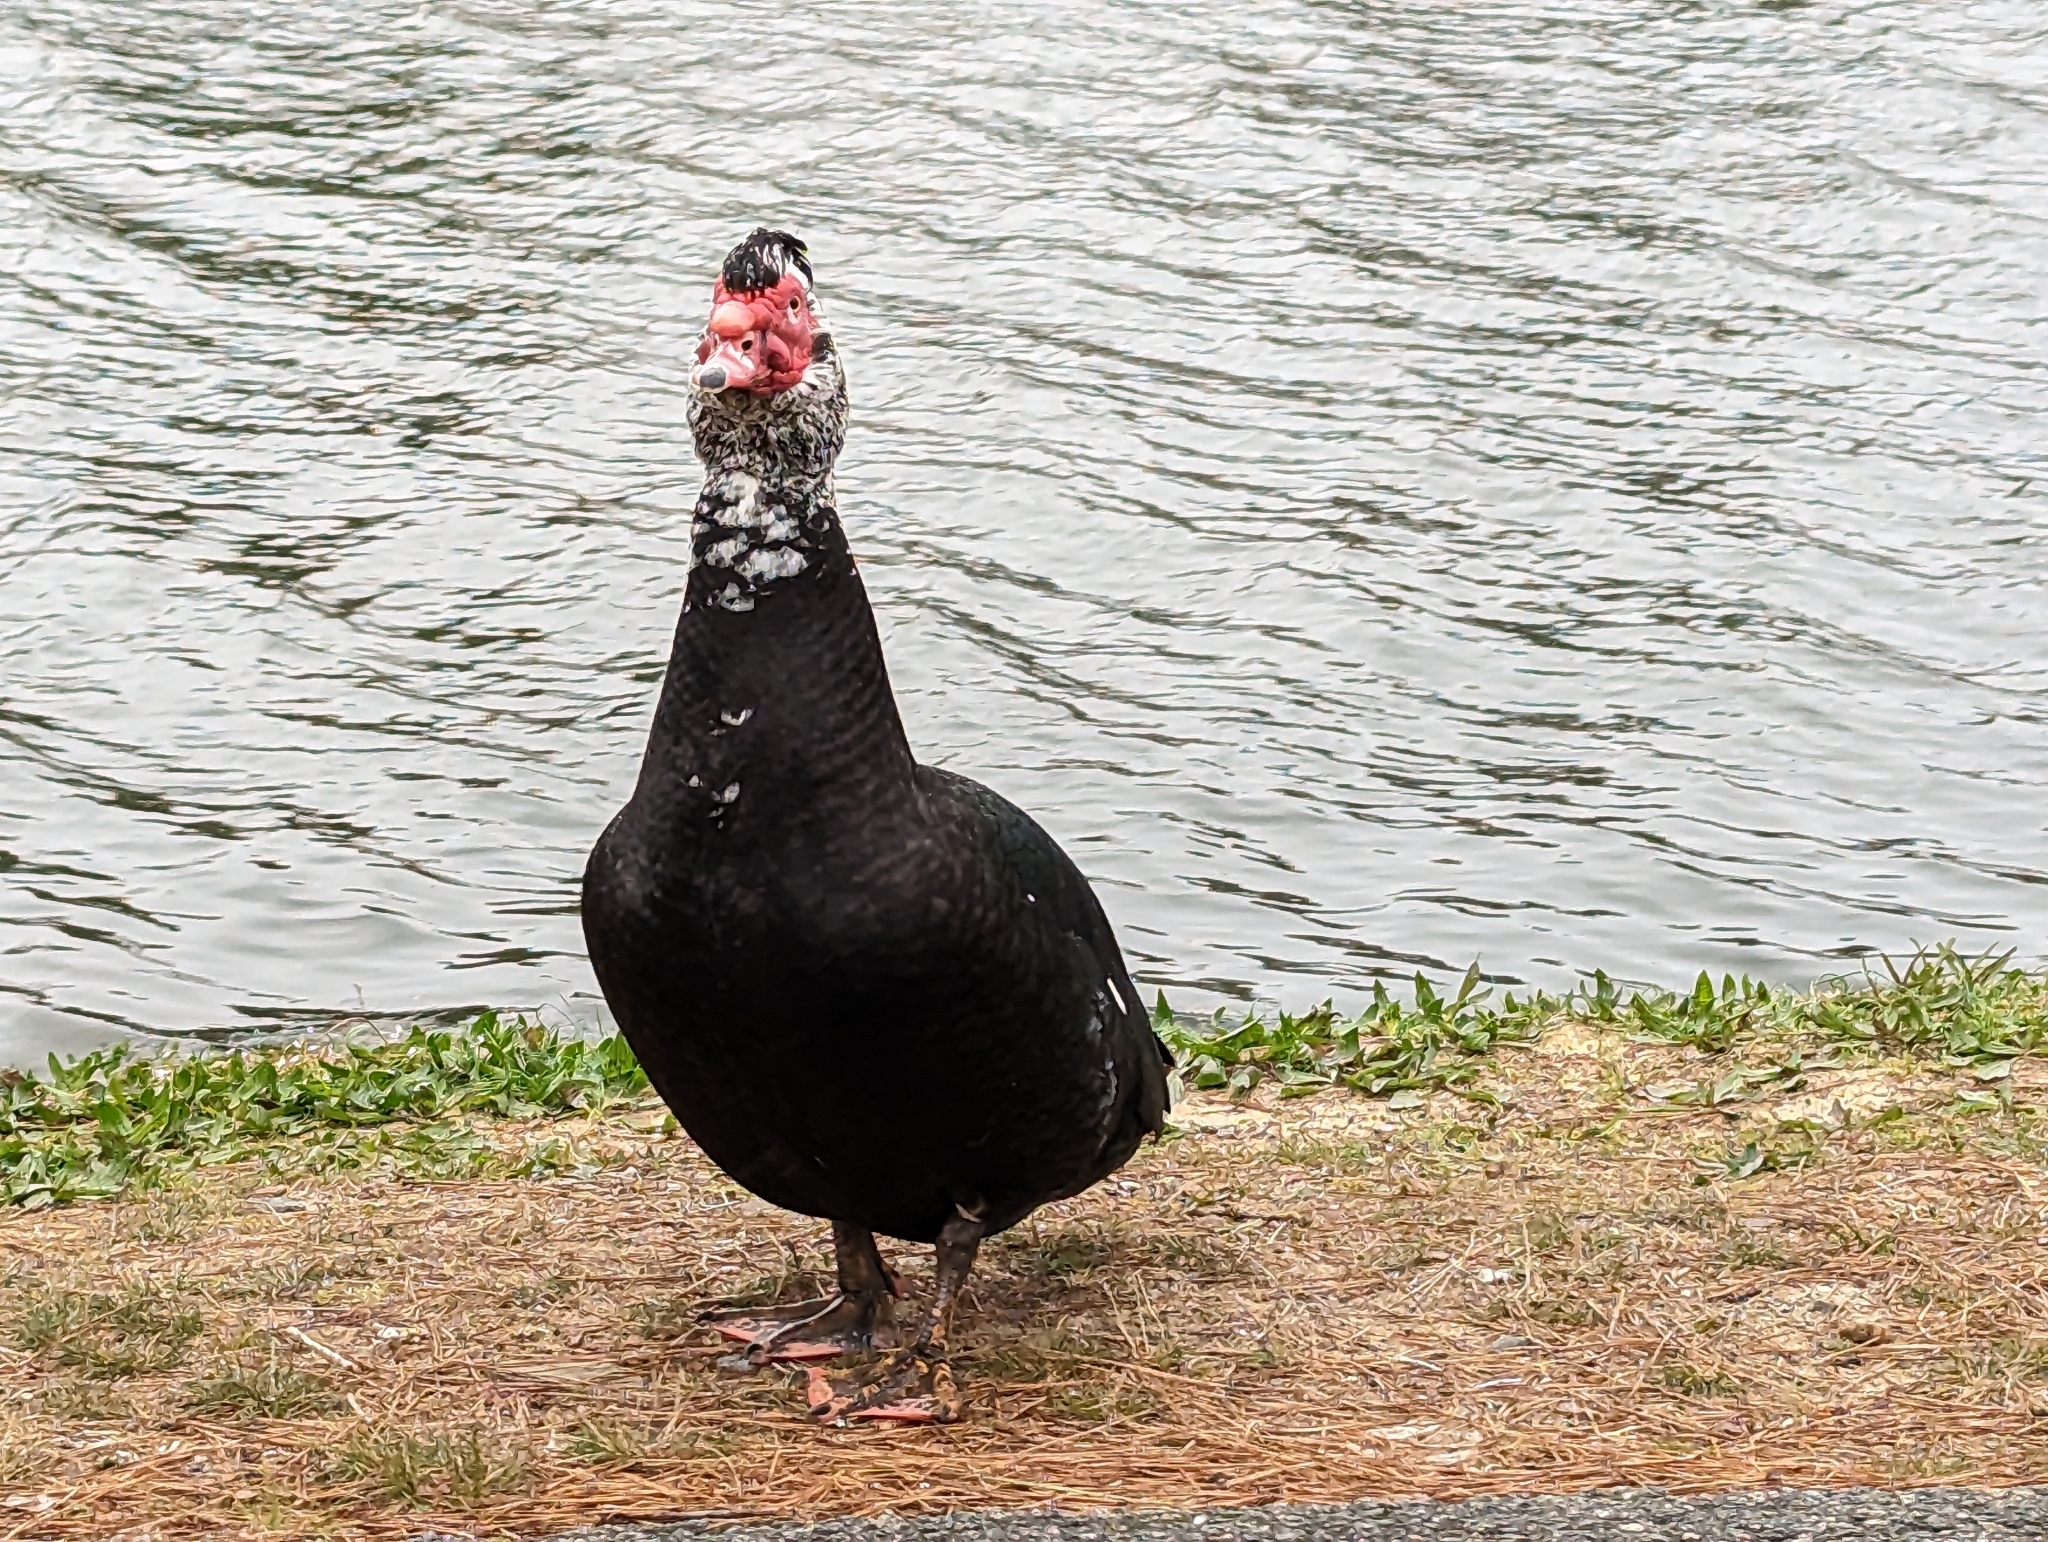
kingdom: Animalia
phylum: Chordata
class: Aves
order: Anseriformes
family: Anatidae
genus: Cairina
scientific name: Cairina moschata
